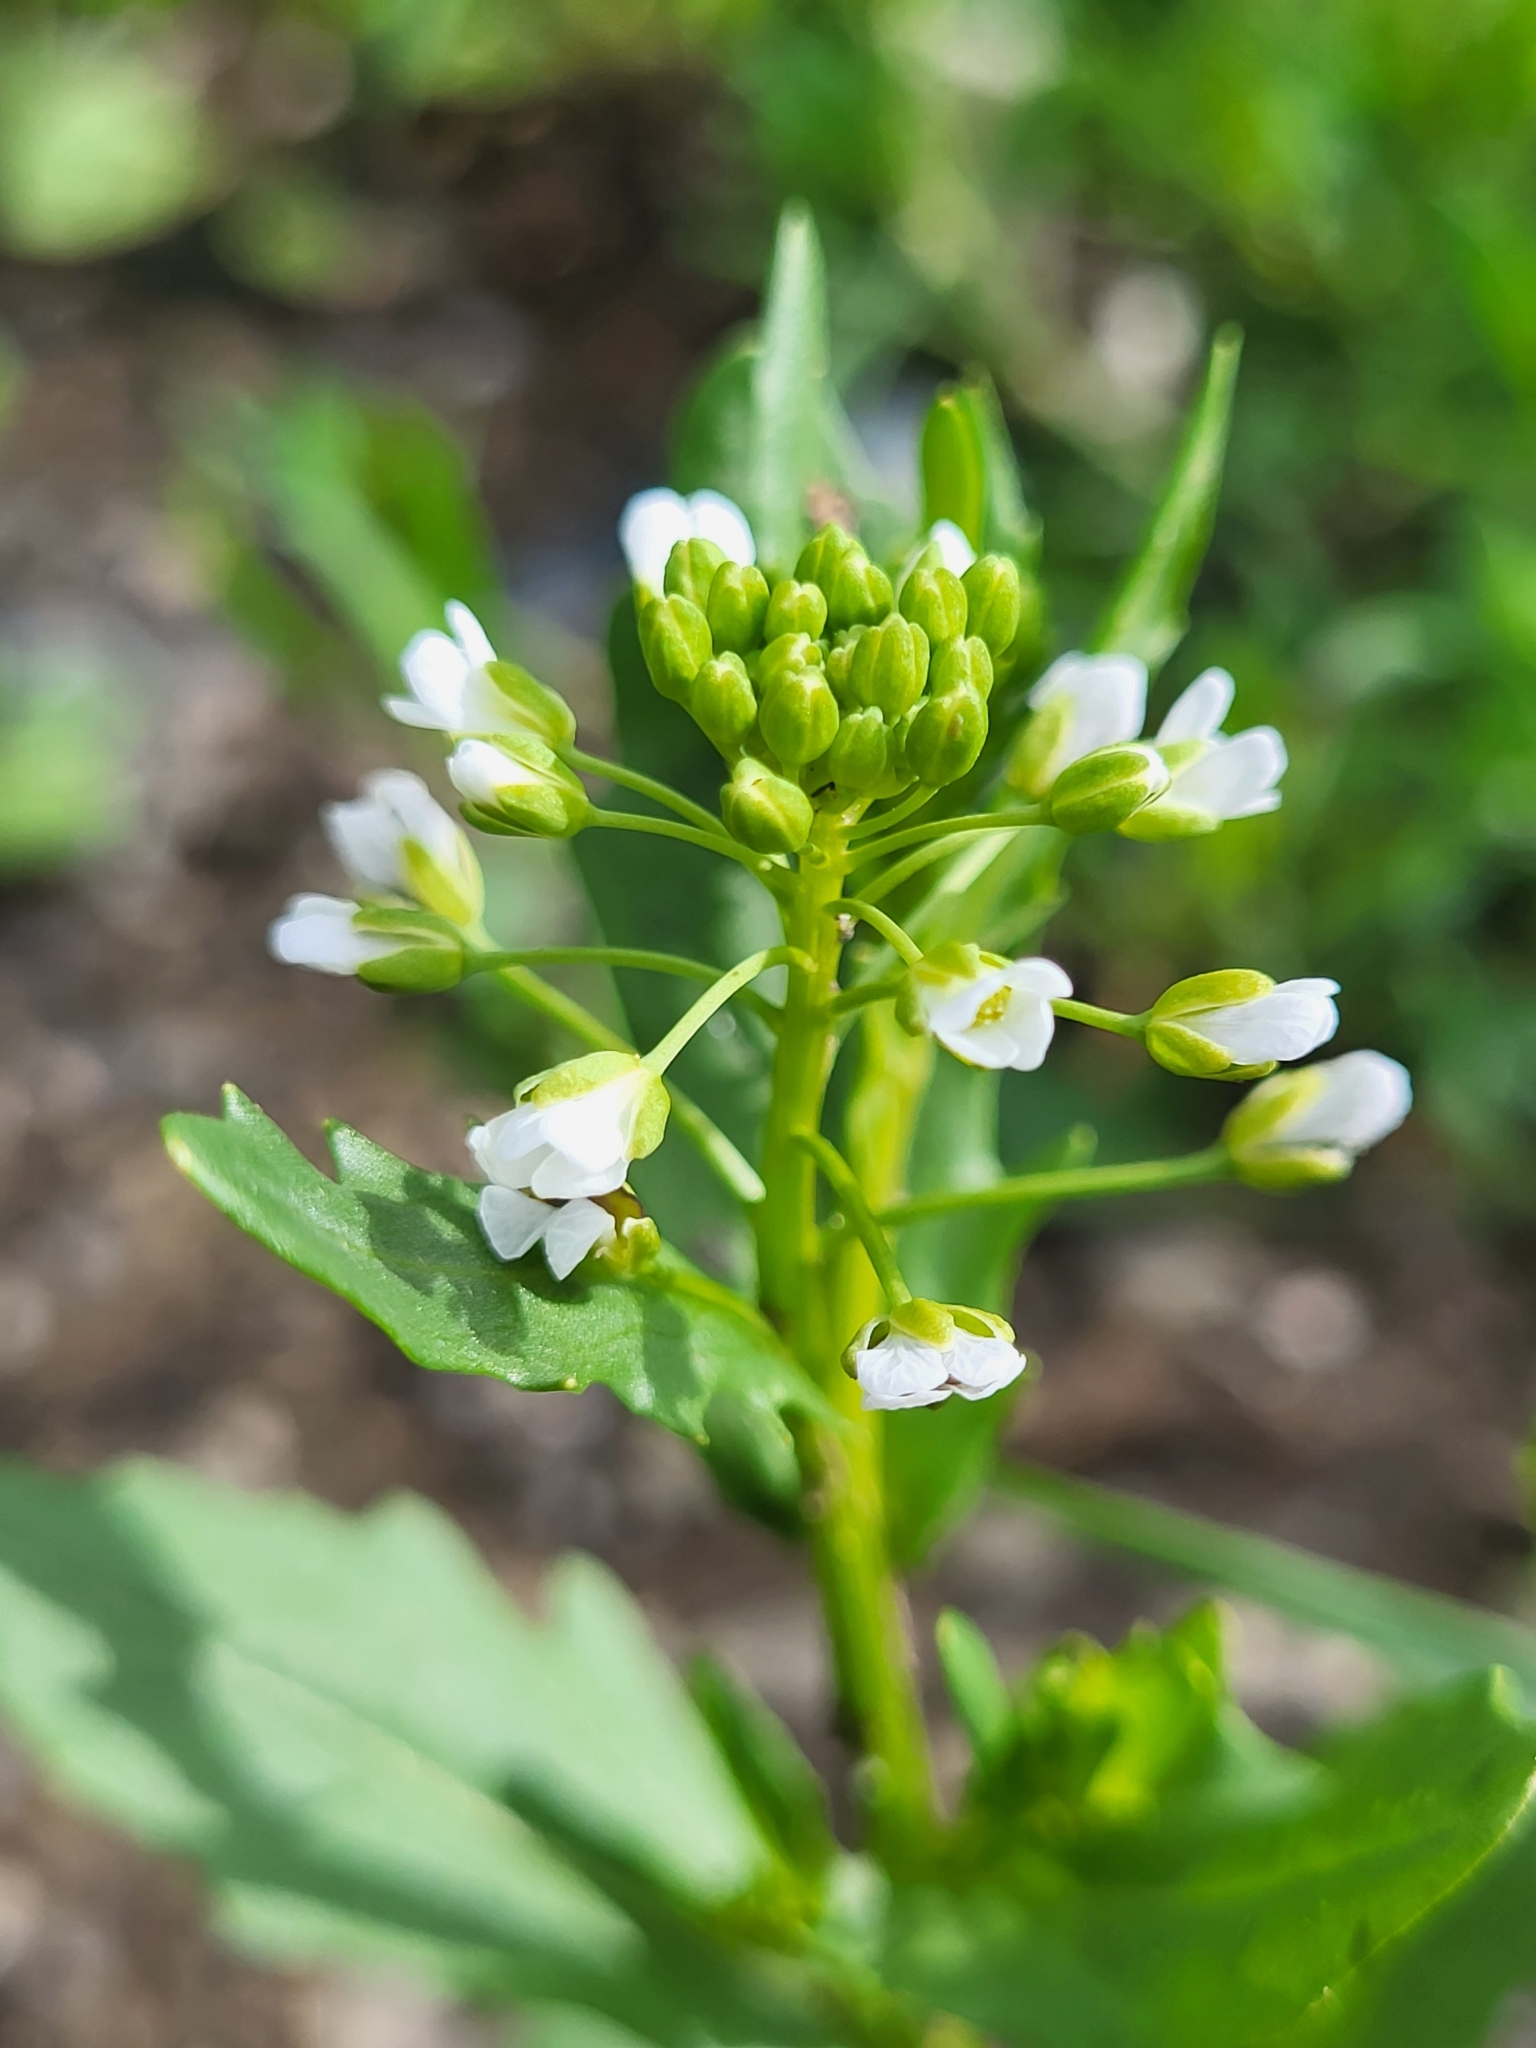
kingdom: Plantae
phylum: Tracheophyta
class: Magnoliopsida
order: Brassicales
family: Brassicaceae
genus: Thlaspi
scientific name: Thlaspi arvense
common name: Field pennycress
